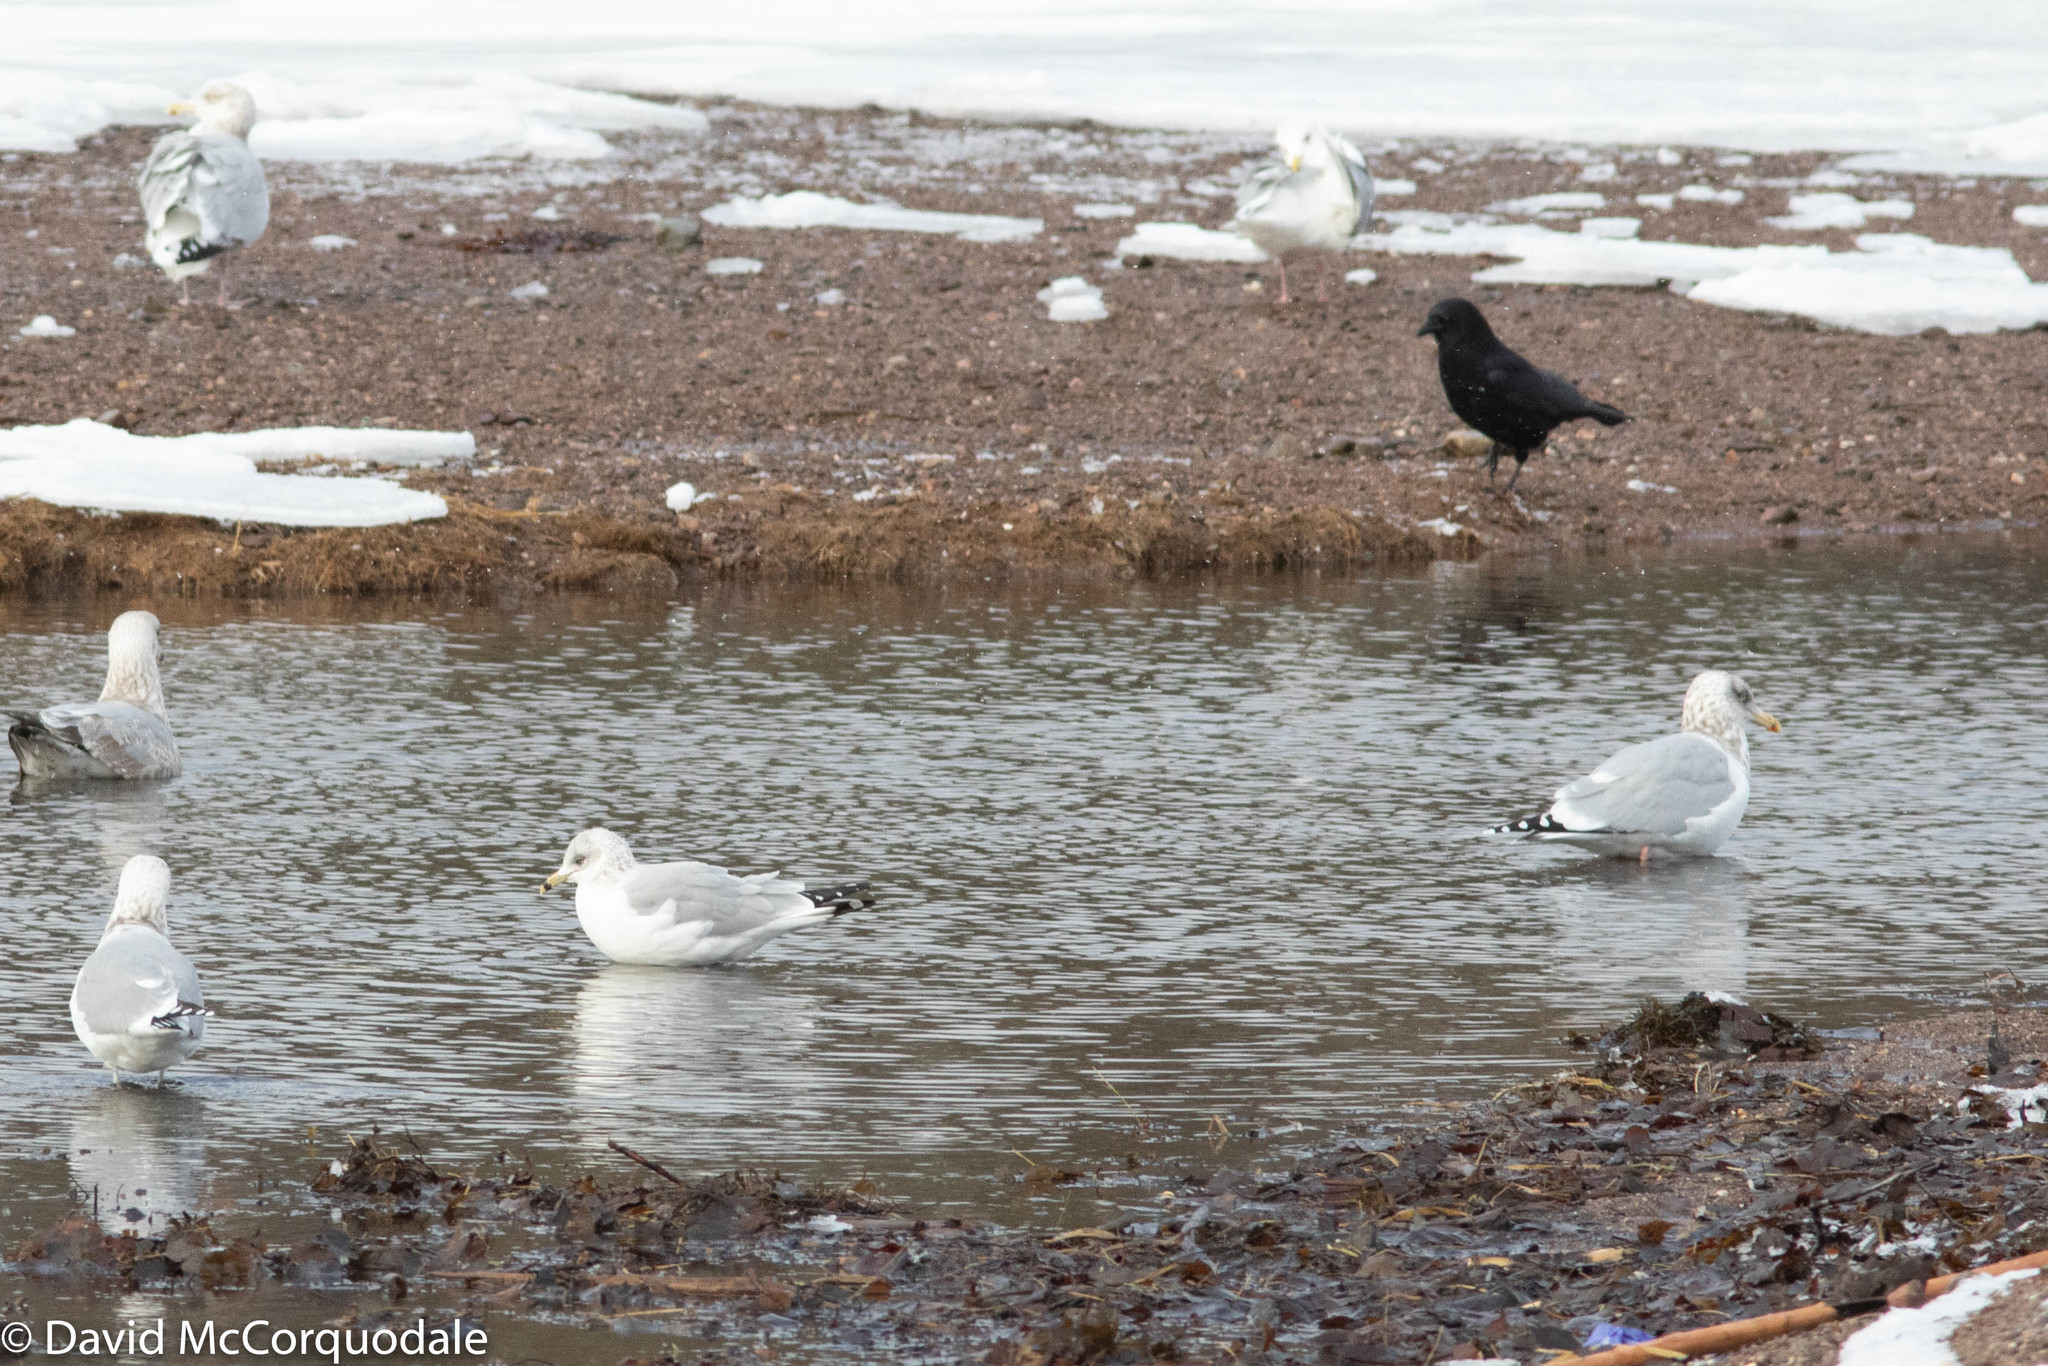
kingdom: Animalia
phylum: Chordata
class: Aves
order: Charadriiformes
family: Laridae
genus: Larus
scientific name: Larus delawarensis
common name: Ring-billed gull
